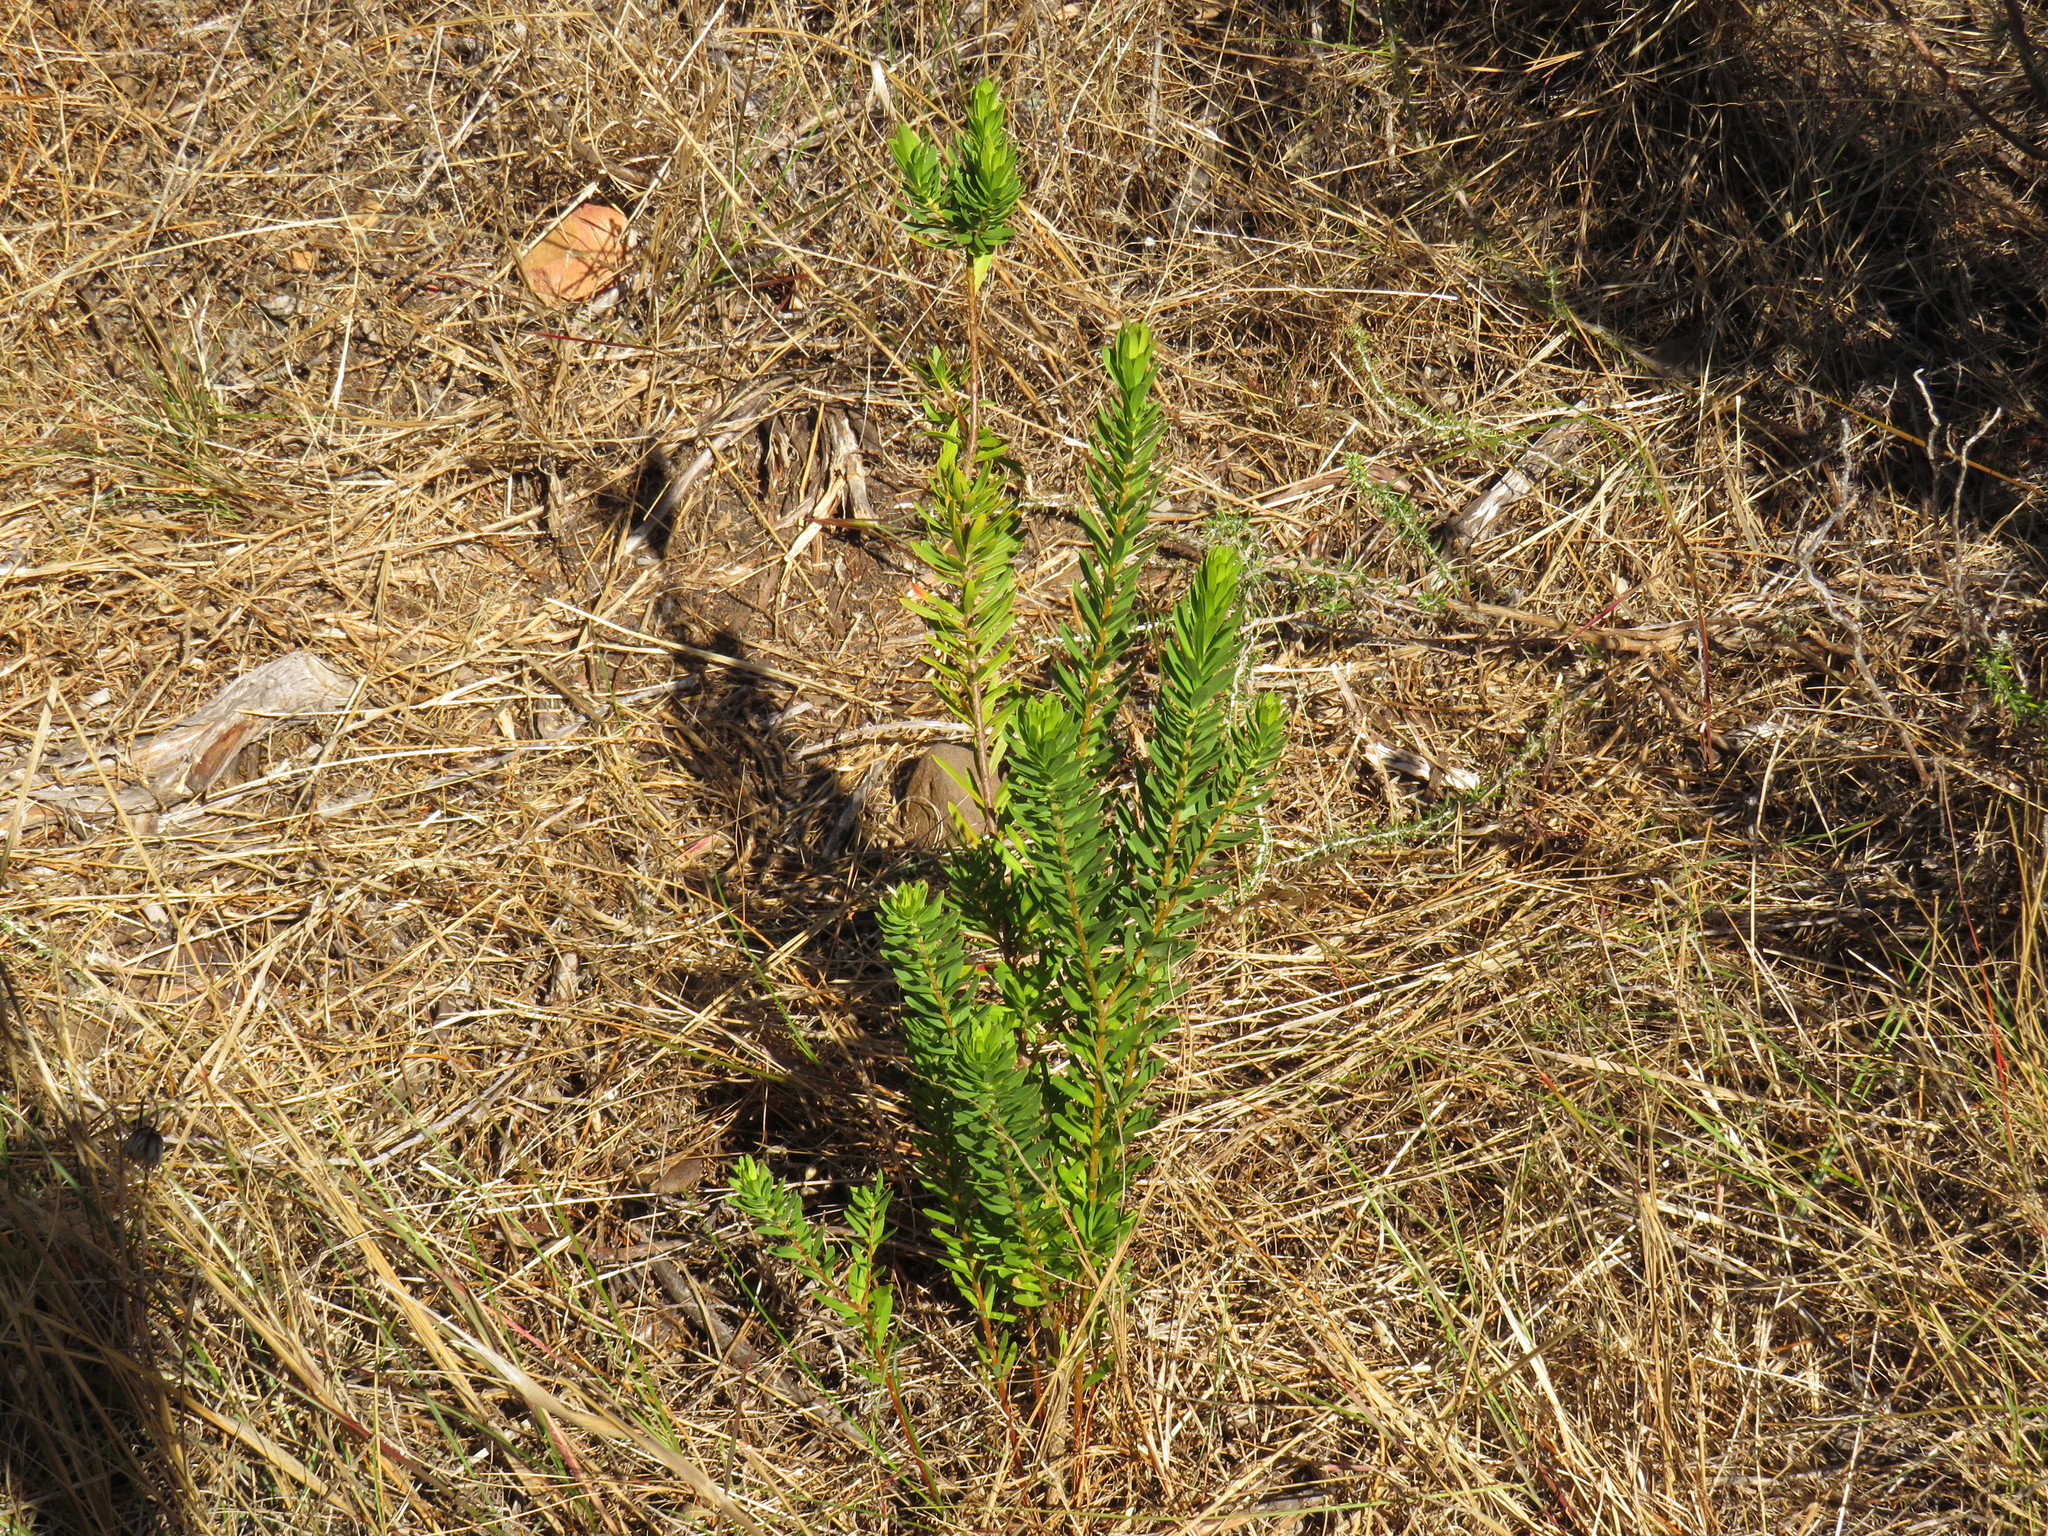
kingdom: Plantae
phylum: Tracheophyta
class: Magnoliopsida
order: Fabales
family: Polygalaceae
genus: Polygala
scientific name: Polygala myrtifolia
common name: Myrtle-leaf milkwort
